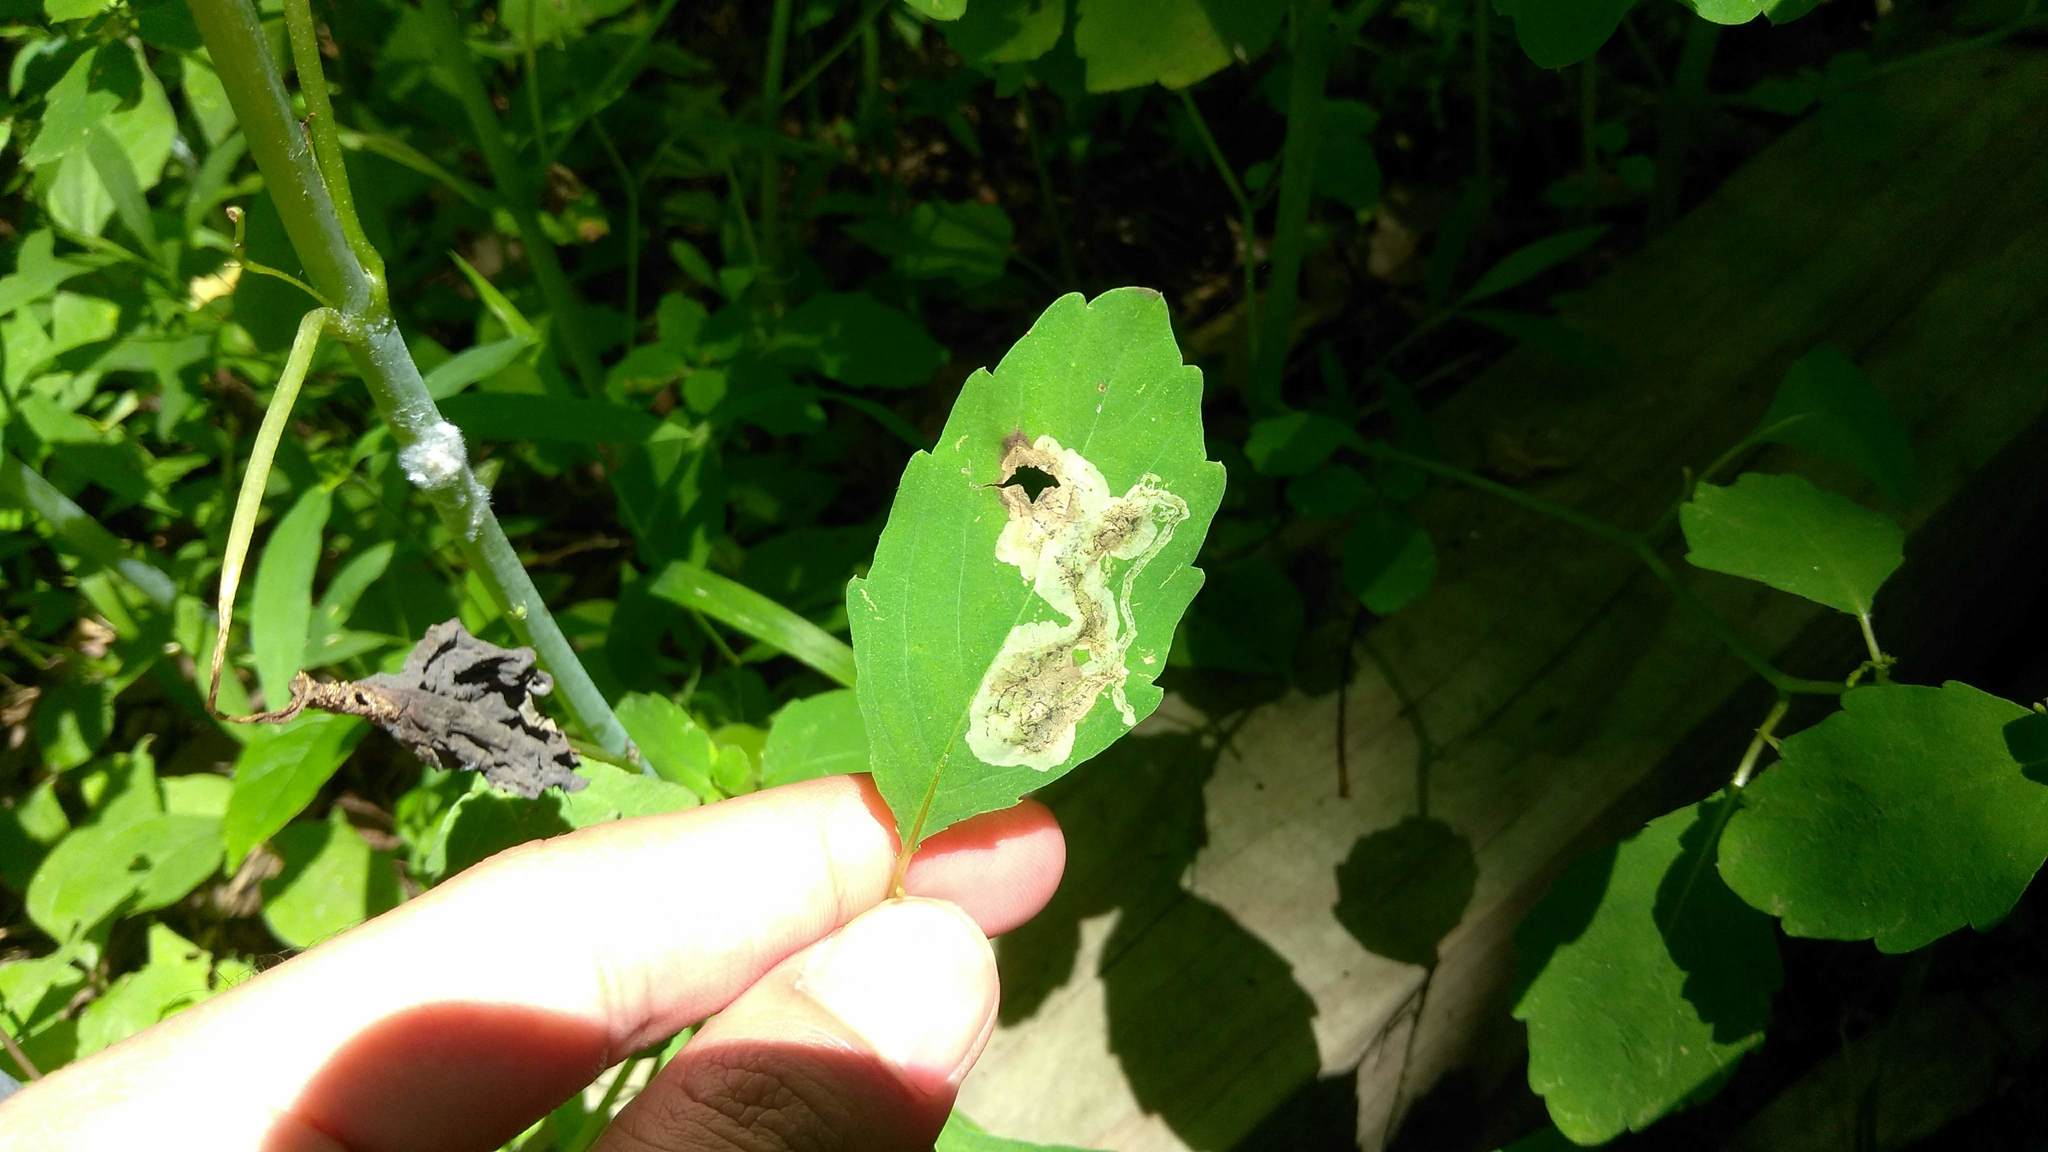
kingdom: Animalia
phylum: Arthropoda
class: Insecta
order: Diptera
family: Agromyzidae
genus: Phytoliriomyza
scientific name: Phytoliriomyza melampyga
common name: Jewelweed leaf-miner fly
